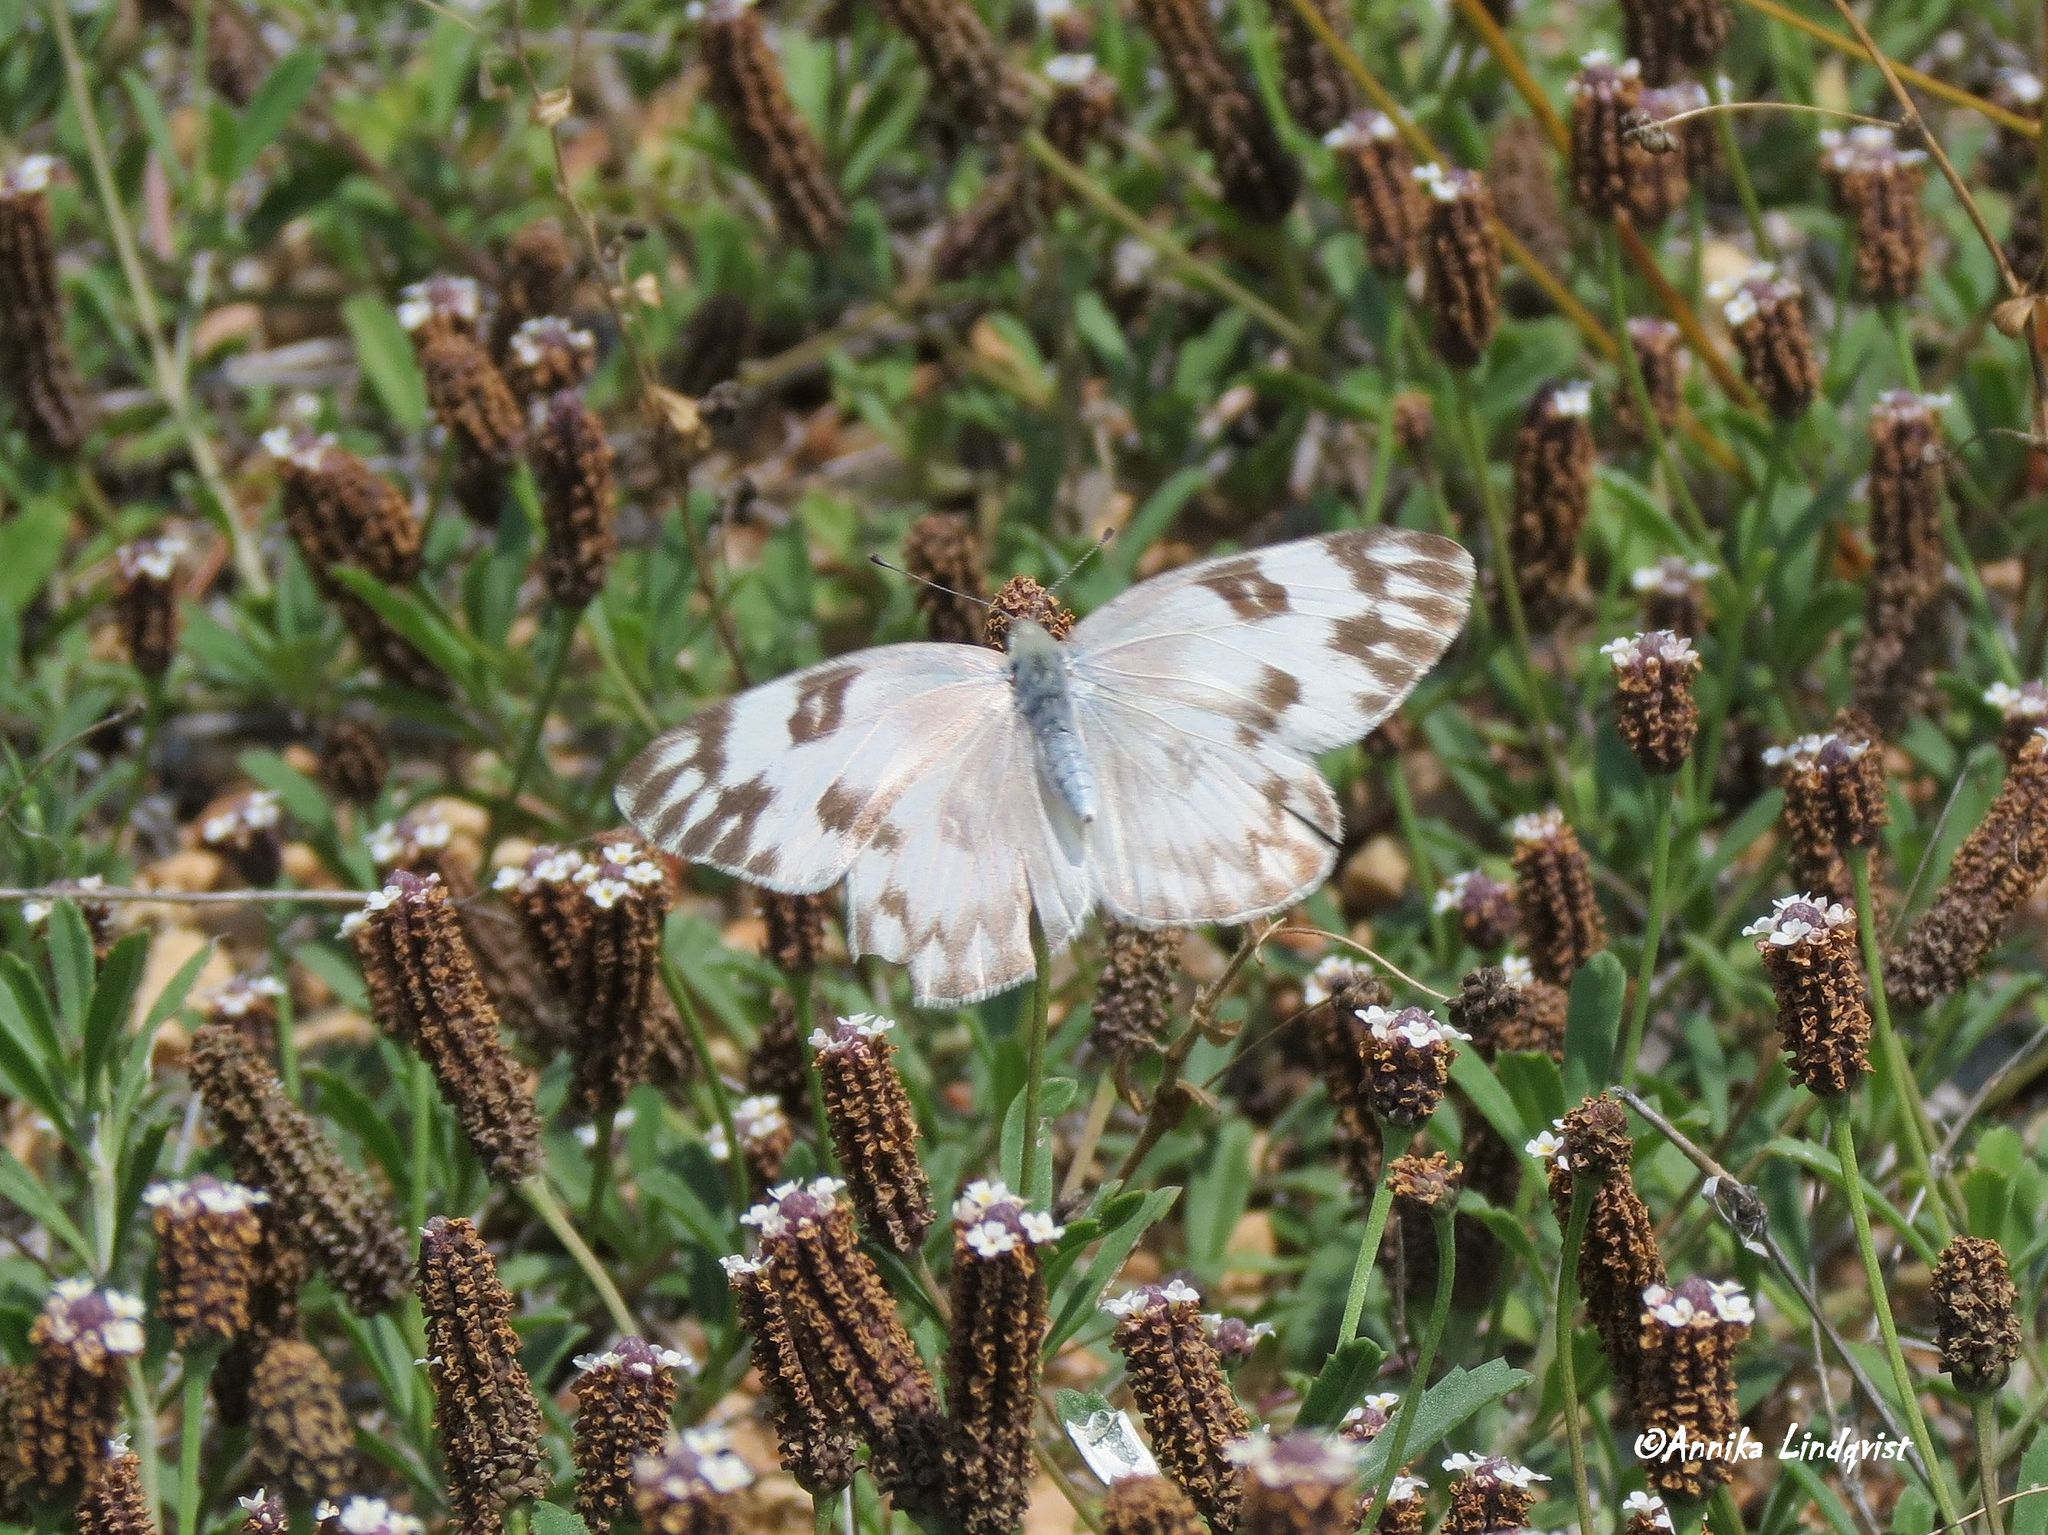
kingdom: Animalia
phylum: Arthropoda
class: Insecta
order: Lepidoptera
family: Pieridae
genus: Pontia
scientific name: Pontia protodice
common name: Checkered white
